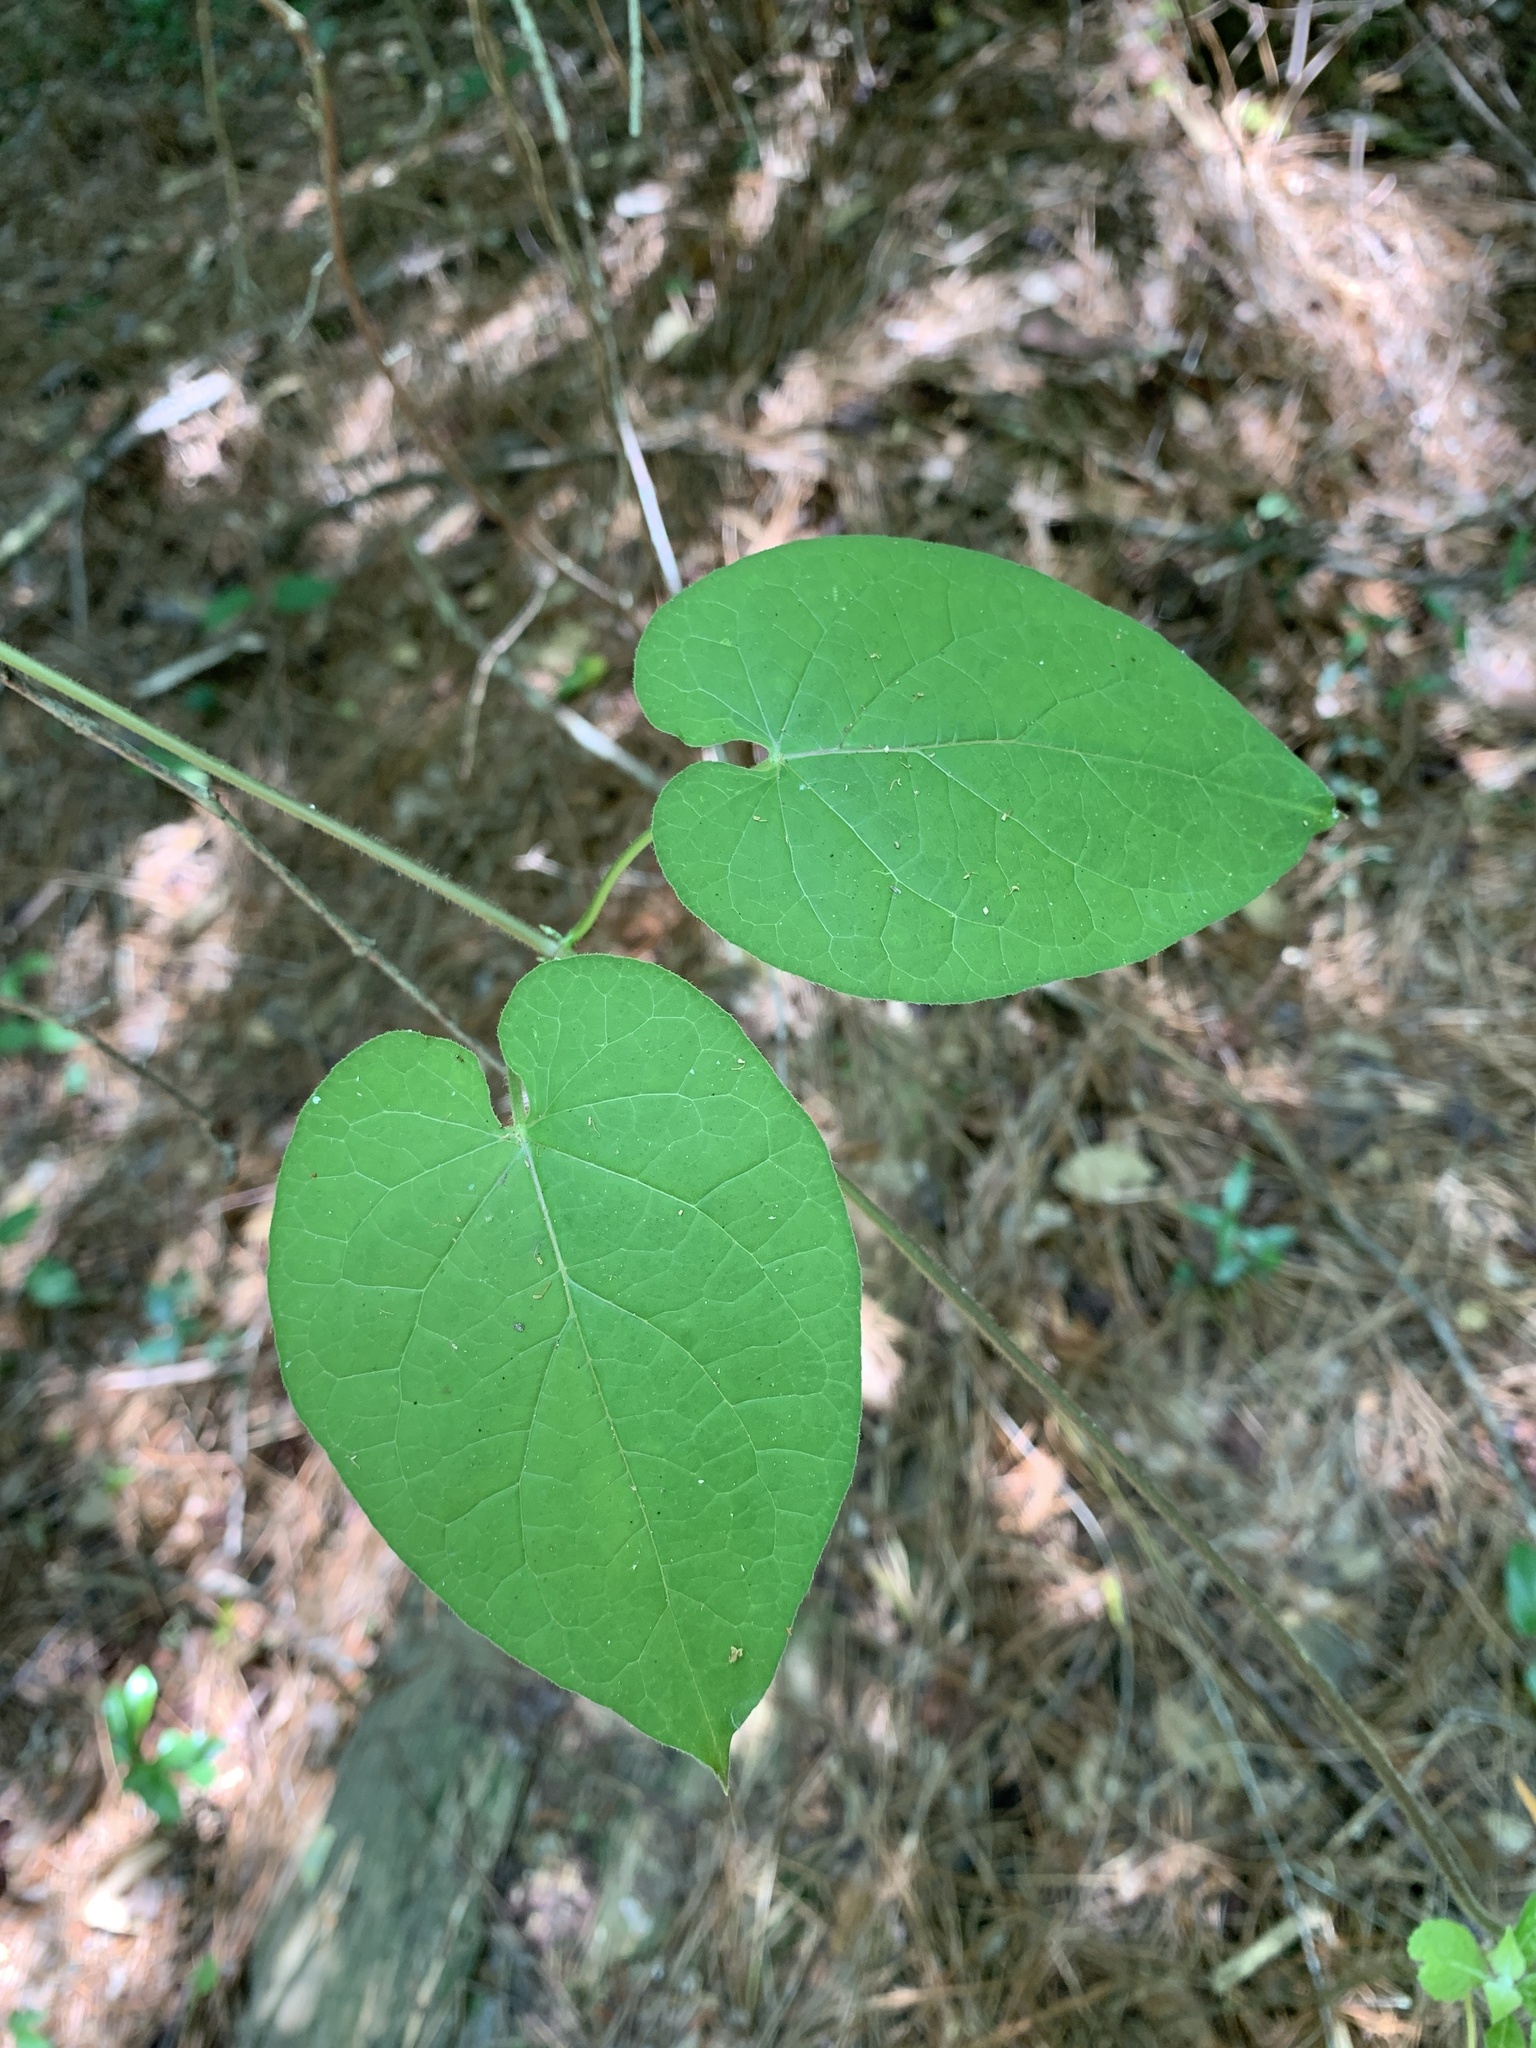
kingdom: Plantae
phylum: Tracheophyta
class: Magnoliopsida
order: Gentianales
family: Apocynaceae
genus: Gonolobus
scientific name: Gonolobus suberosus
